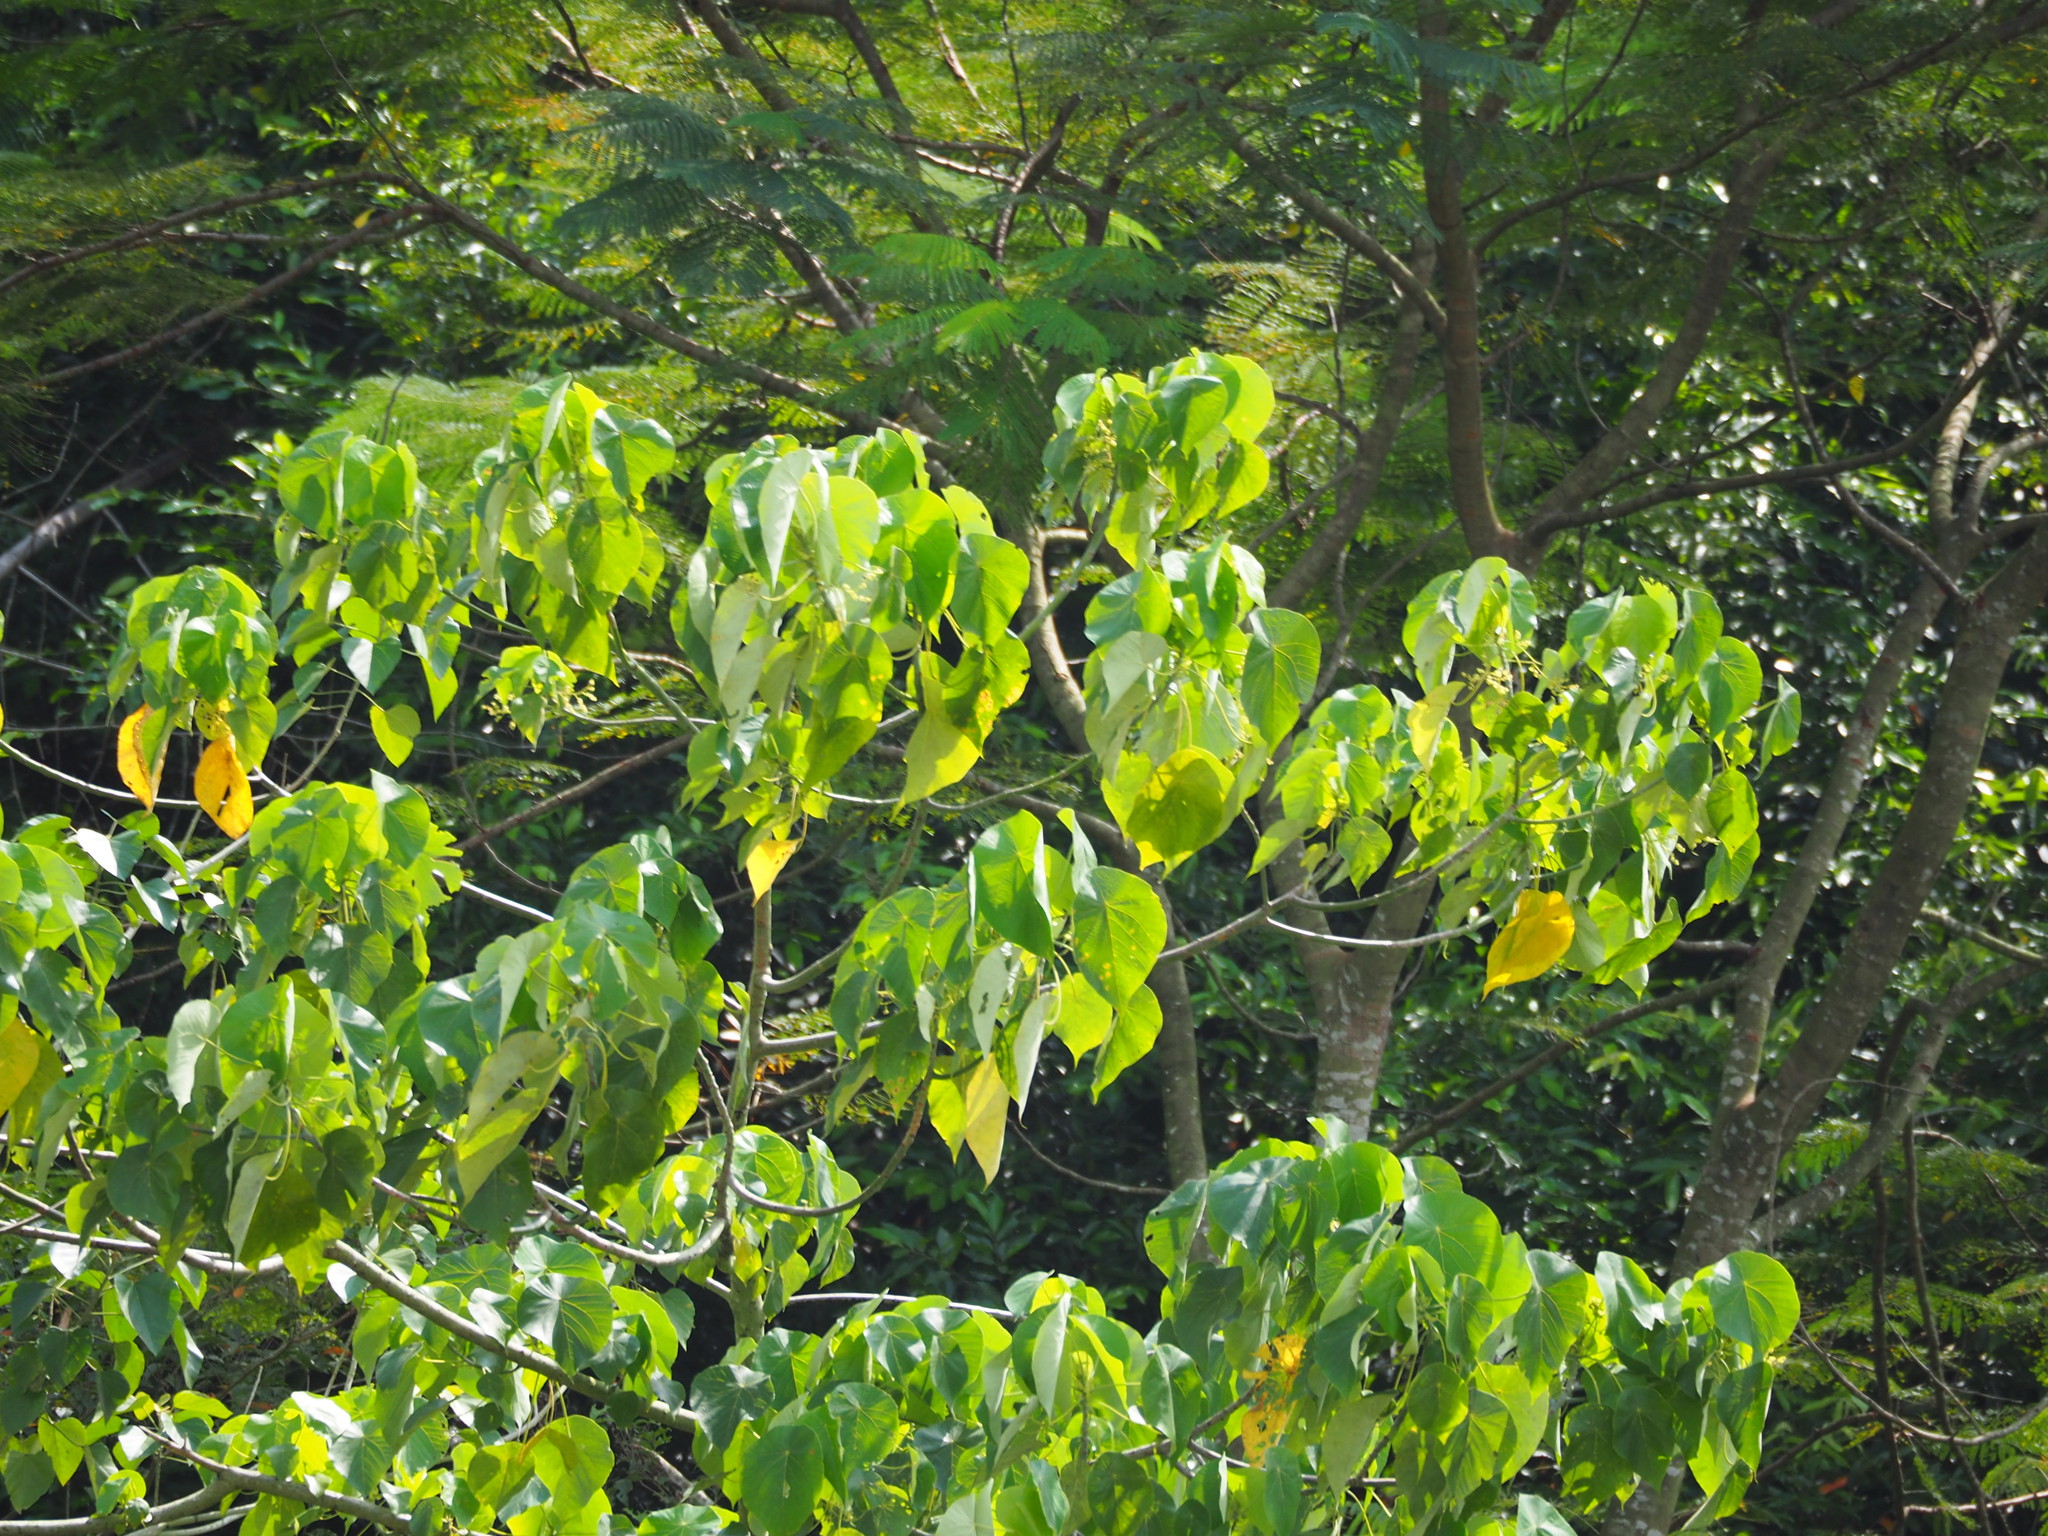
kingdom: Plantae
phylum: Tracheophyta
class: Magnoliopsida
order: Malpighiales
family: Euphorbiaceae
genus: Macaranga
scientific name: Macaranga tanarius
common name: Parasol leaf tree
